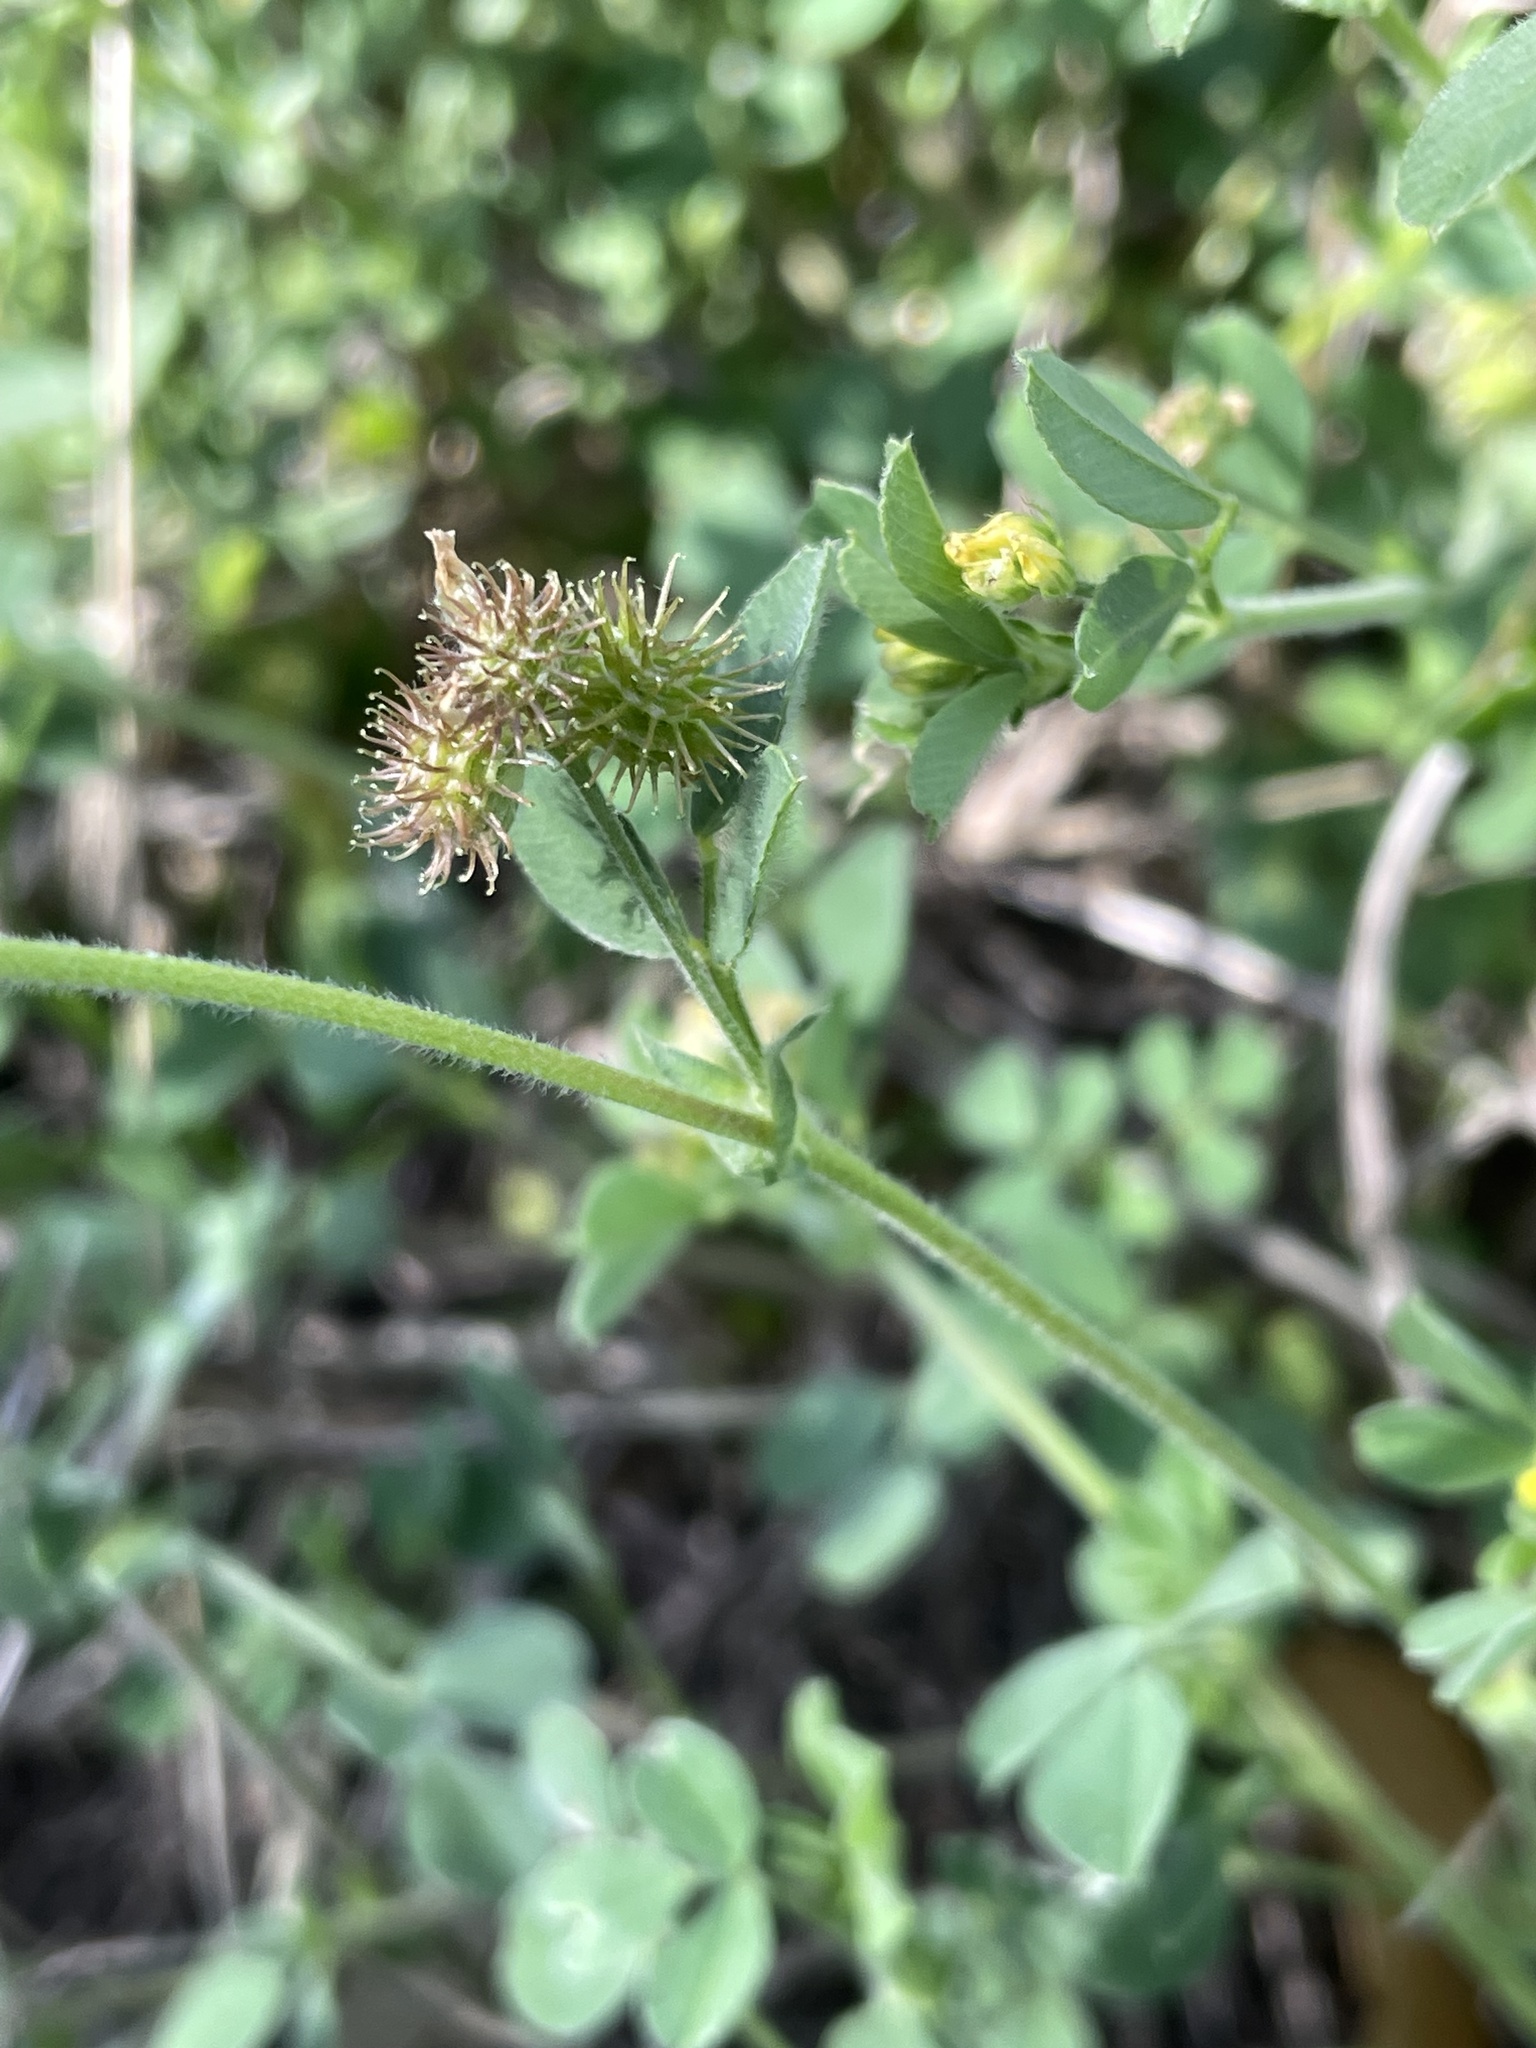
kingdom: Plantae
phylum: Tracheophyta
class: Magnoliopsida
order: Fabales
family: Fabaceae
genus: Medicago
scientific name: Medicago minima
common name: Little bur-clover
